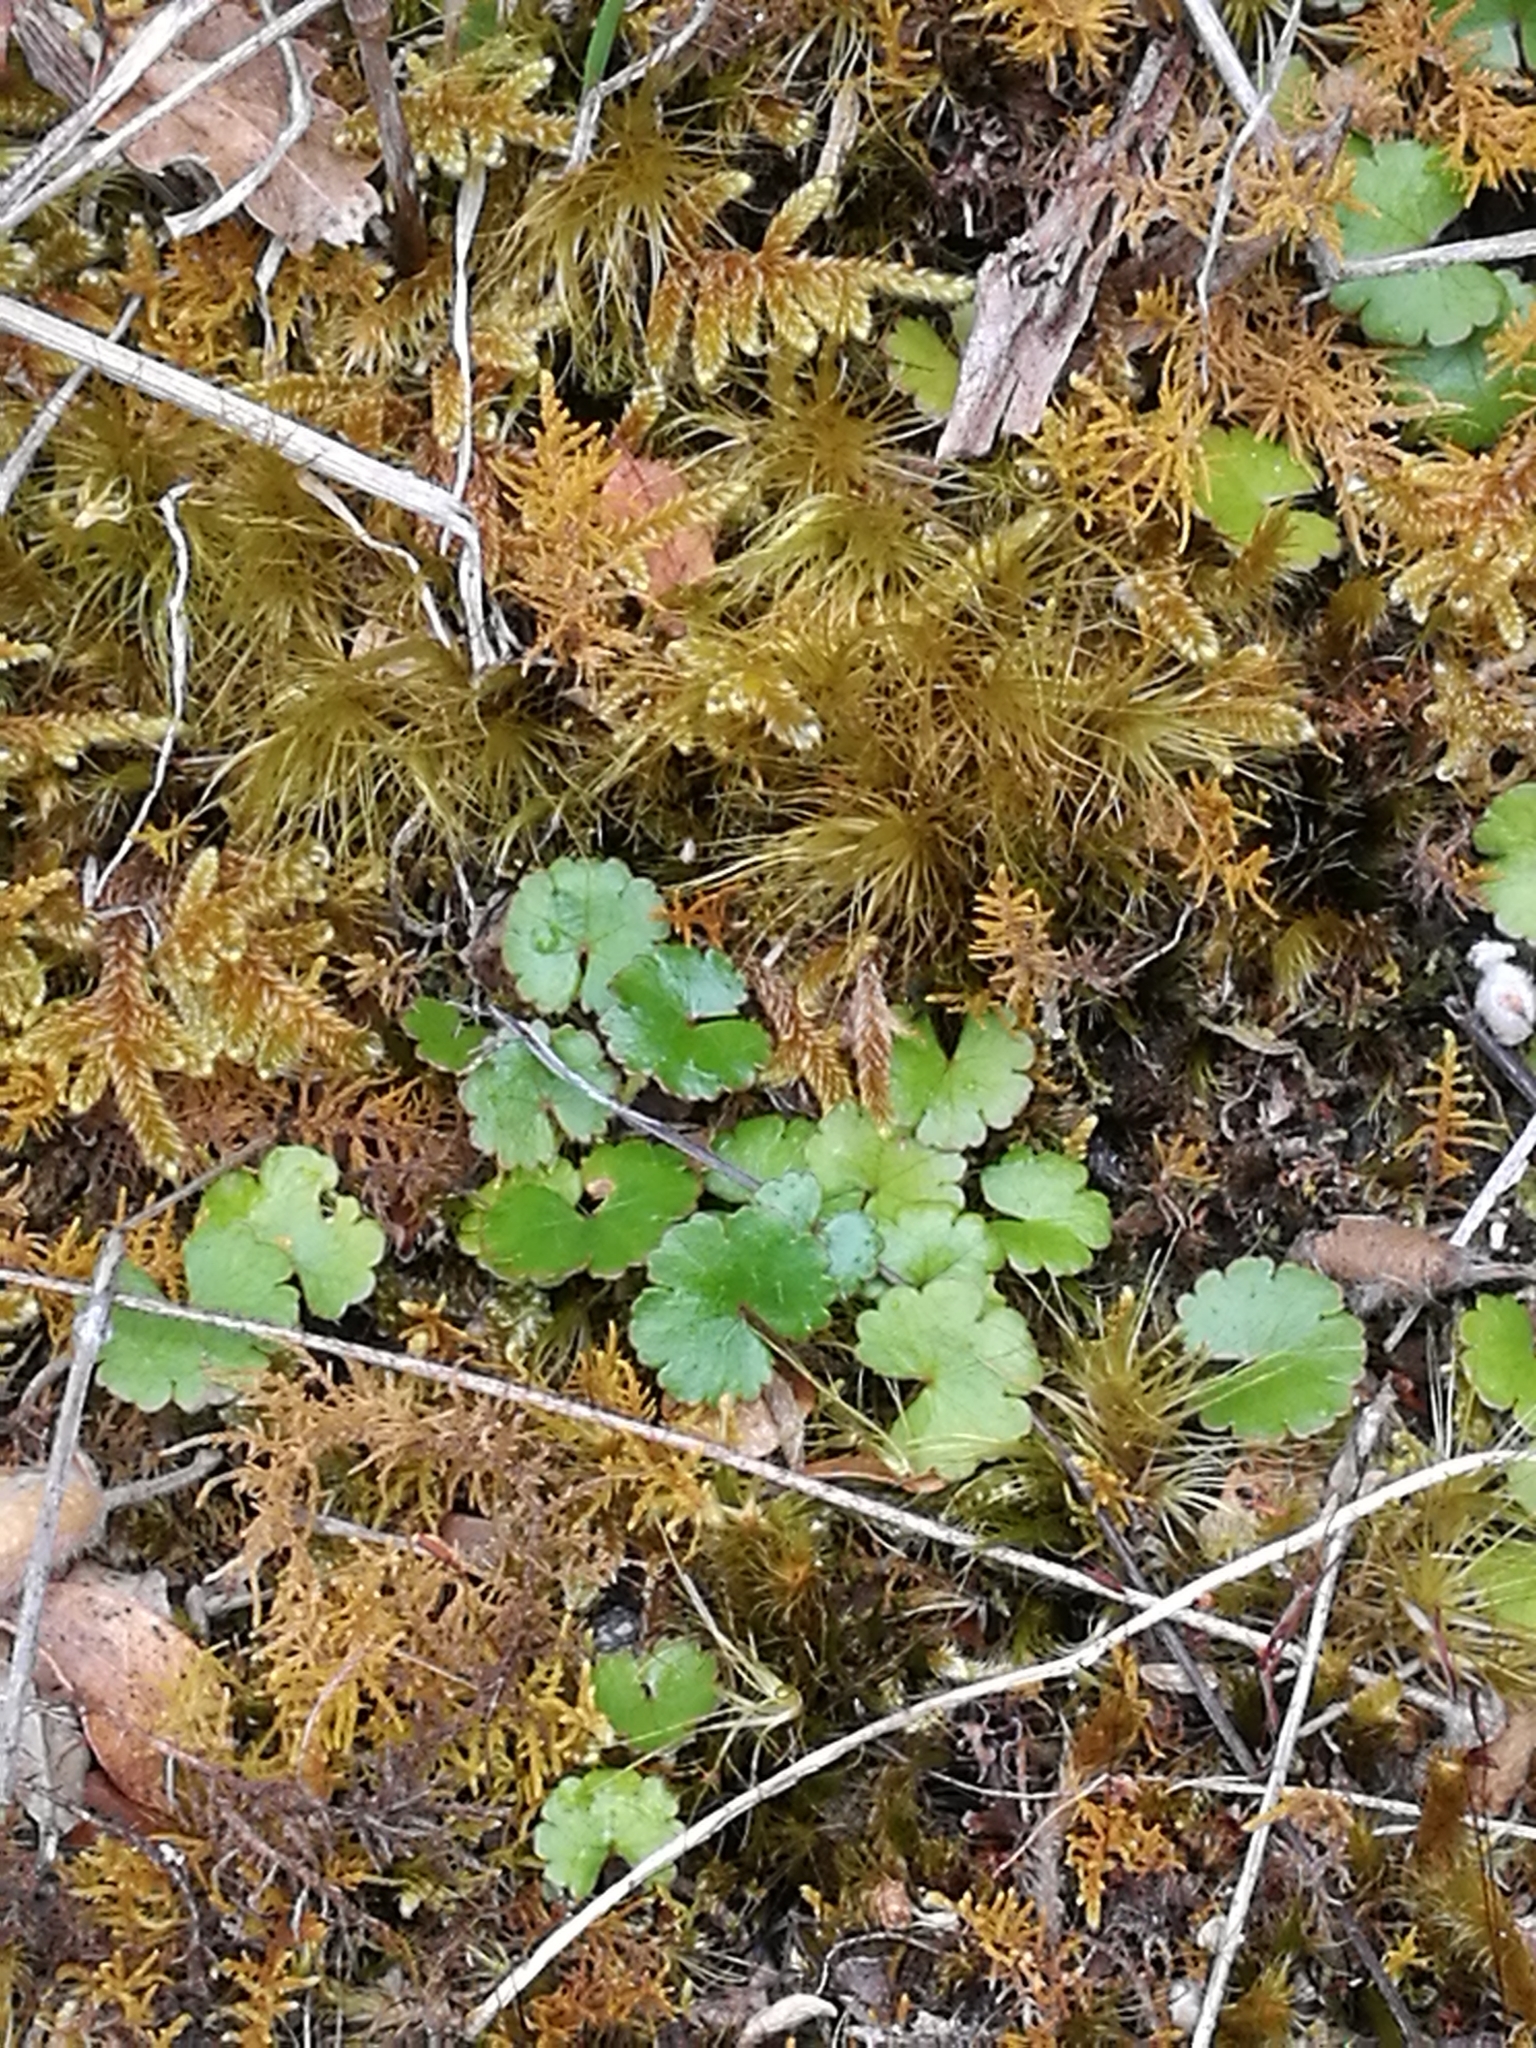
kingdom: Plantae
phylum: Tracheophyta
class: Magnoliopsida
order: Apiales
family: Araliaceae
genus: Hydrocotyle
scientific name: Hydrocotyle novae-zeelandiae
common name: New zealand pennywort
